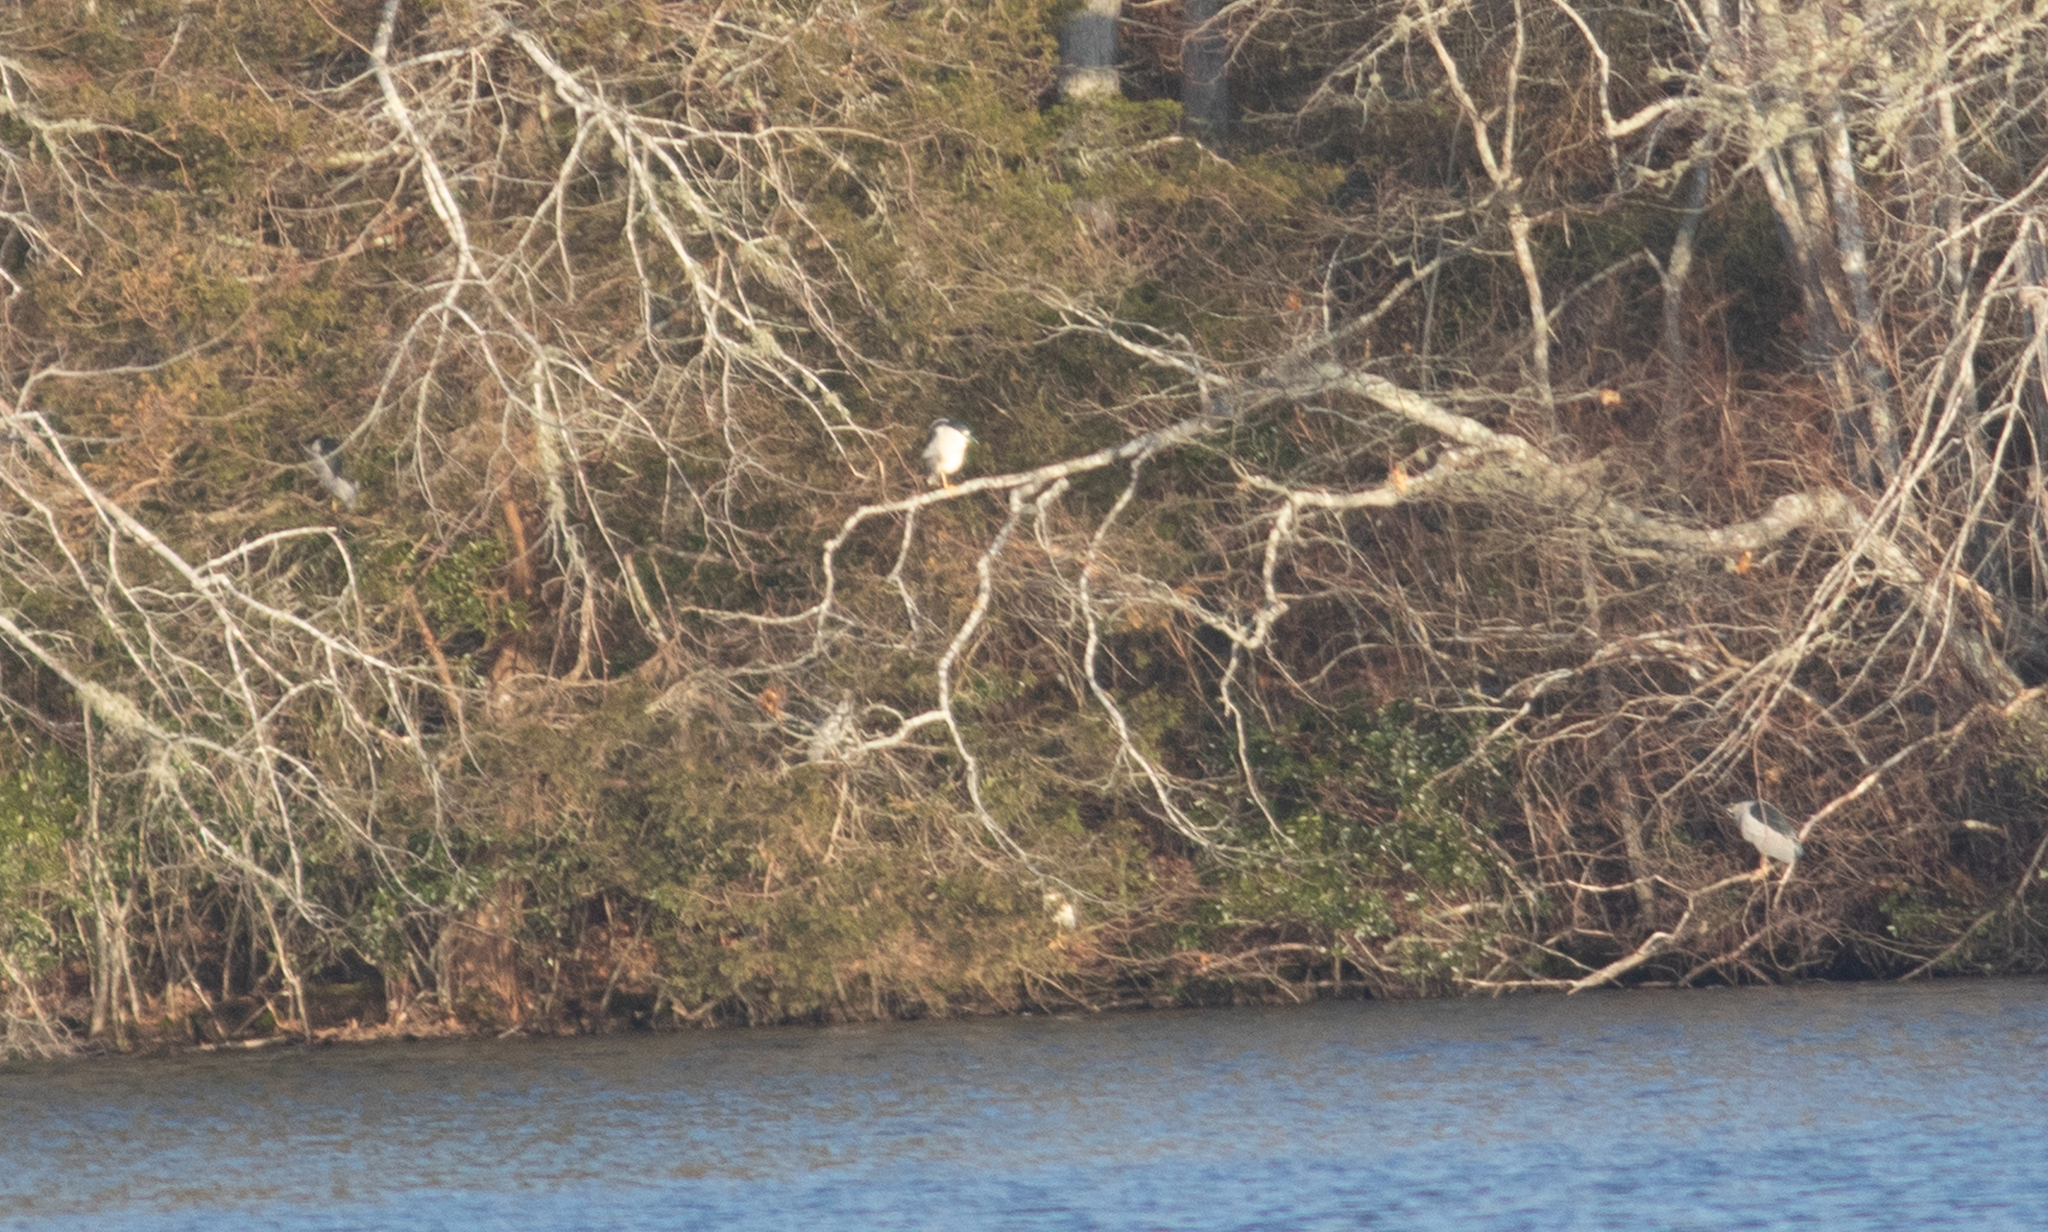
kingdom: Animalia
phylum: Chordata
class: Aves
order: Pelecaniformes
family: Ardeidae
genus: Nycticorax
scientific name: Nycticorax nycticorax
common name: Black-crowned night heron
